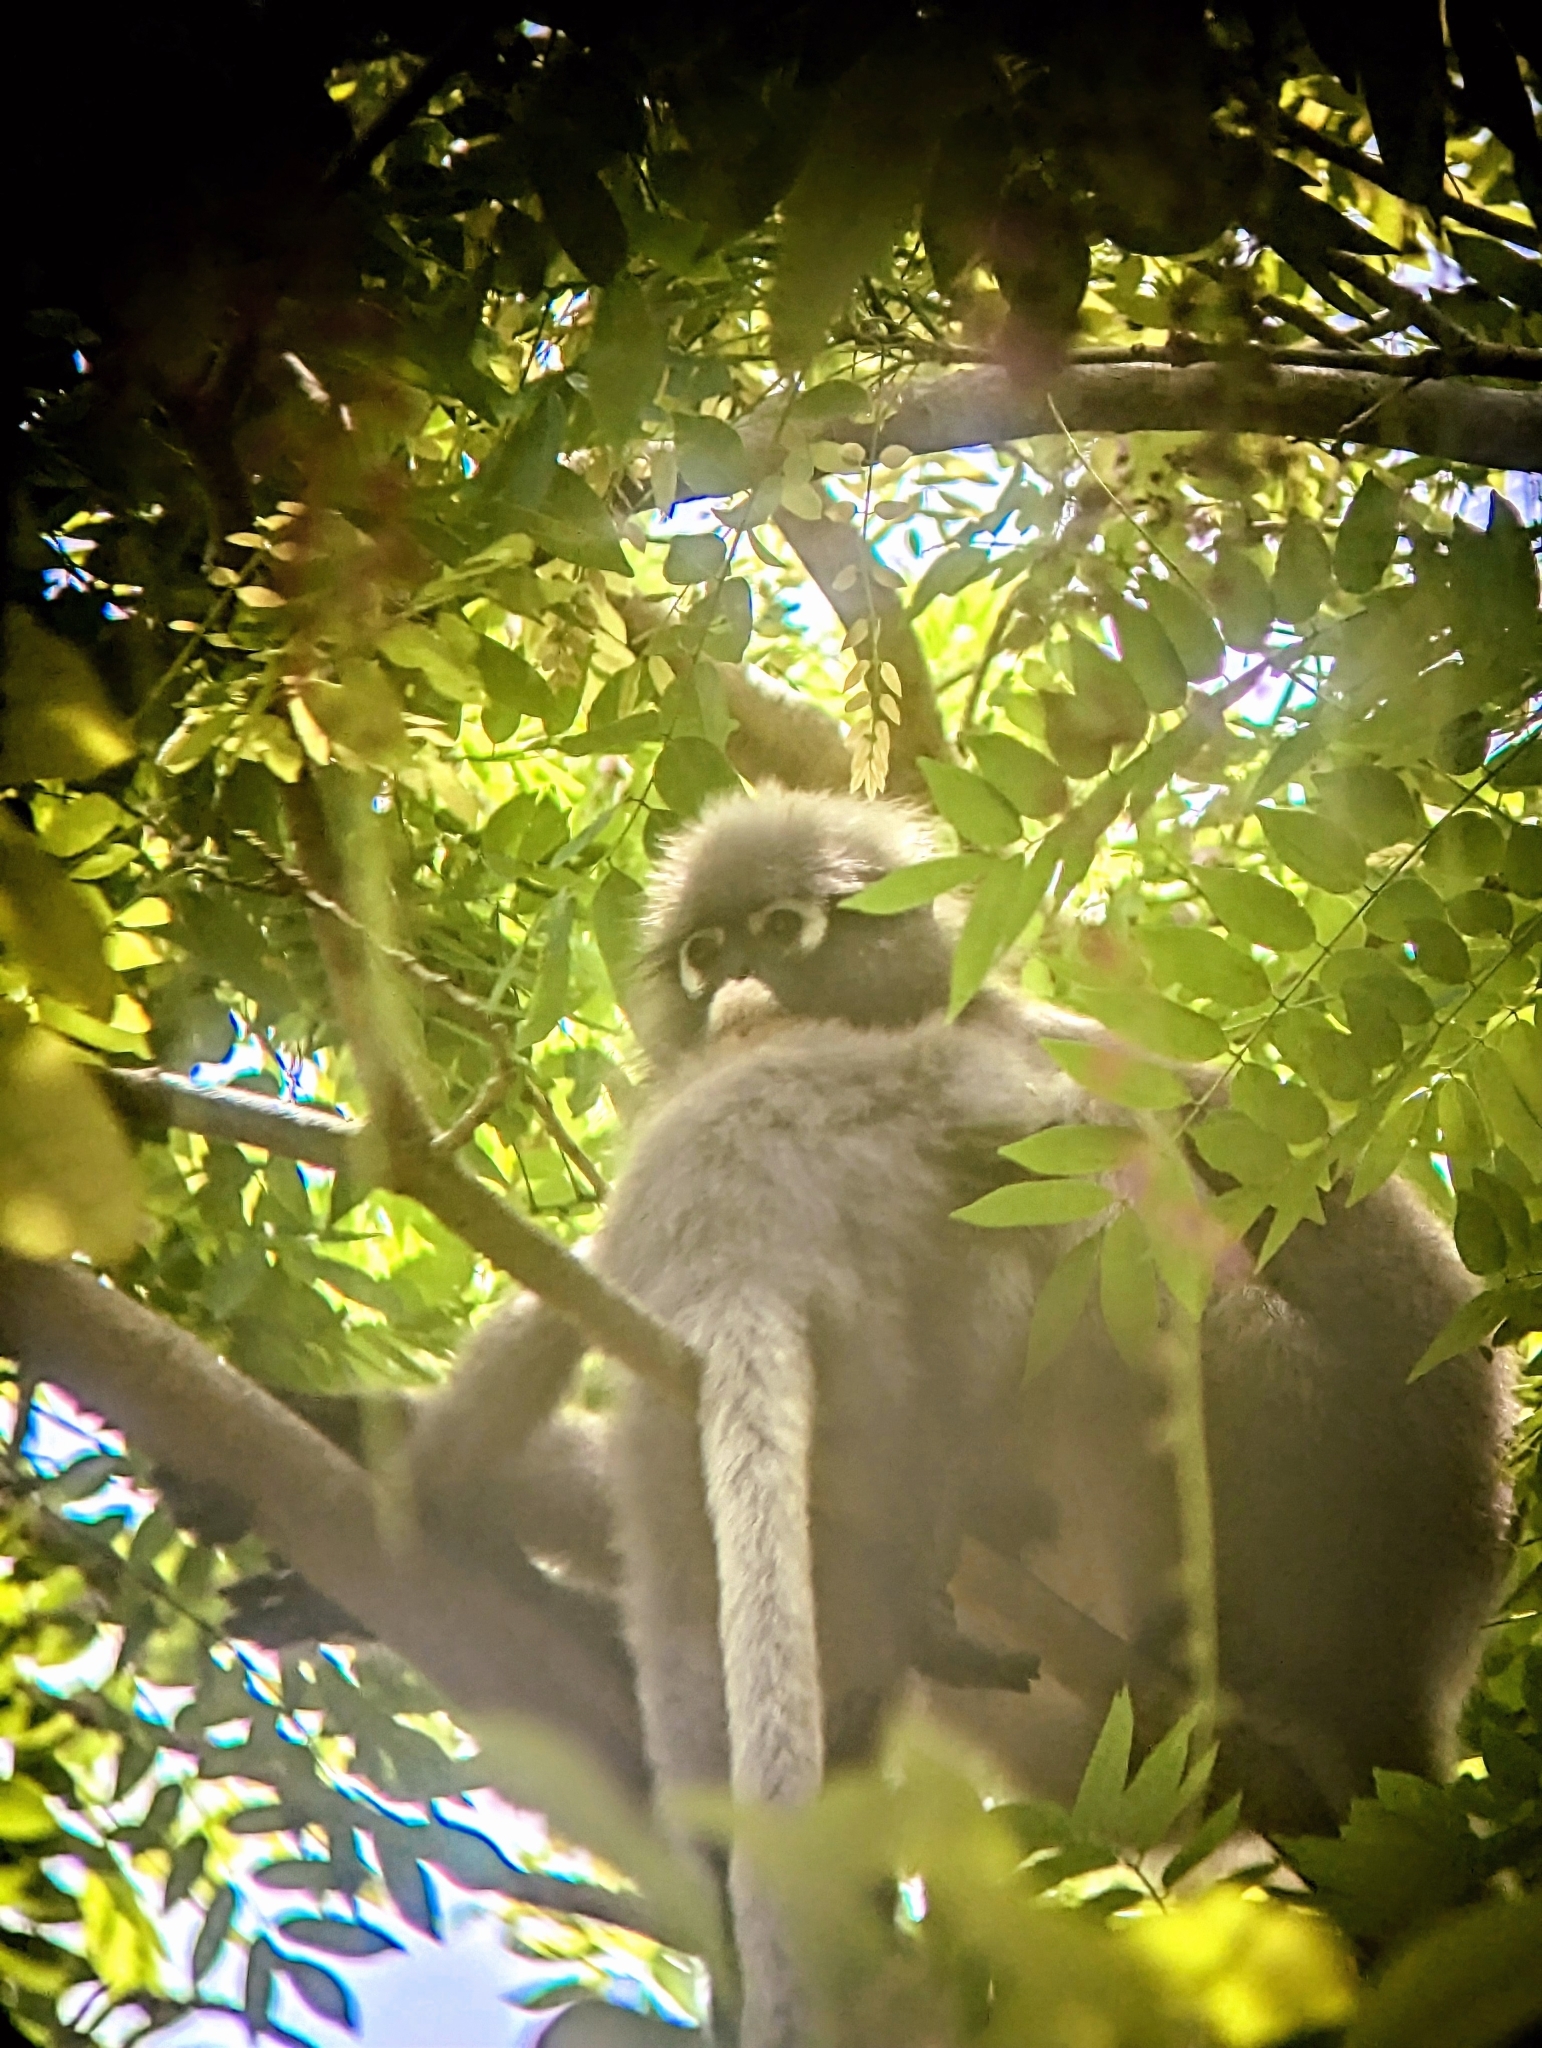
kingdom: Animalia
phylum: Chordata
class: Mammalia
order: Primates
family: Cercopithecidae
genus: Trachypithecus
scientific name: Trachypithecus obscurus
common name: Dusky leaf-monkey
